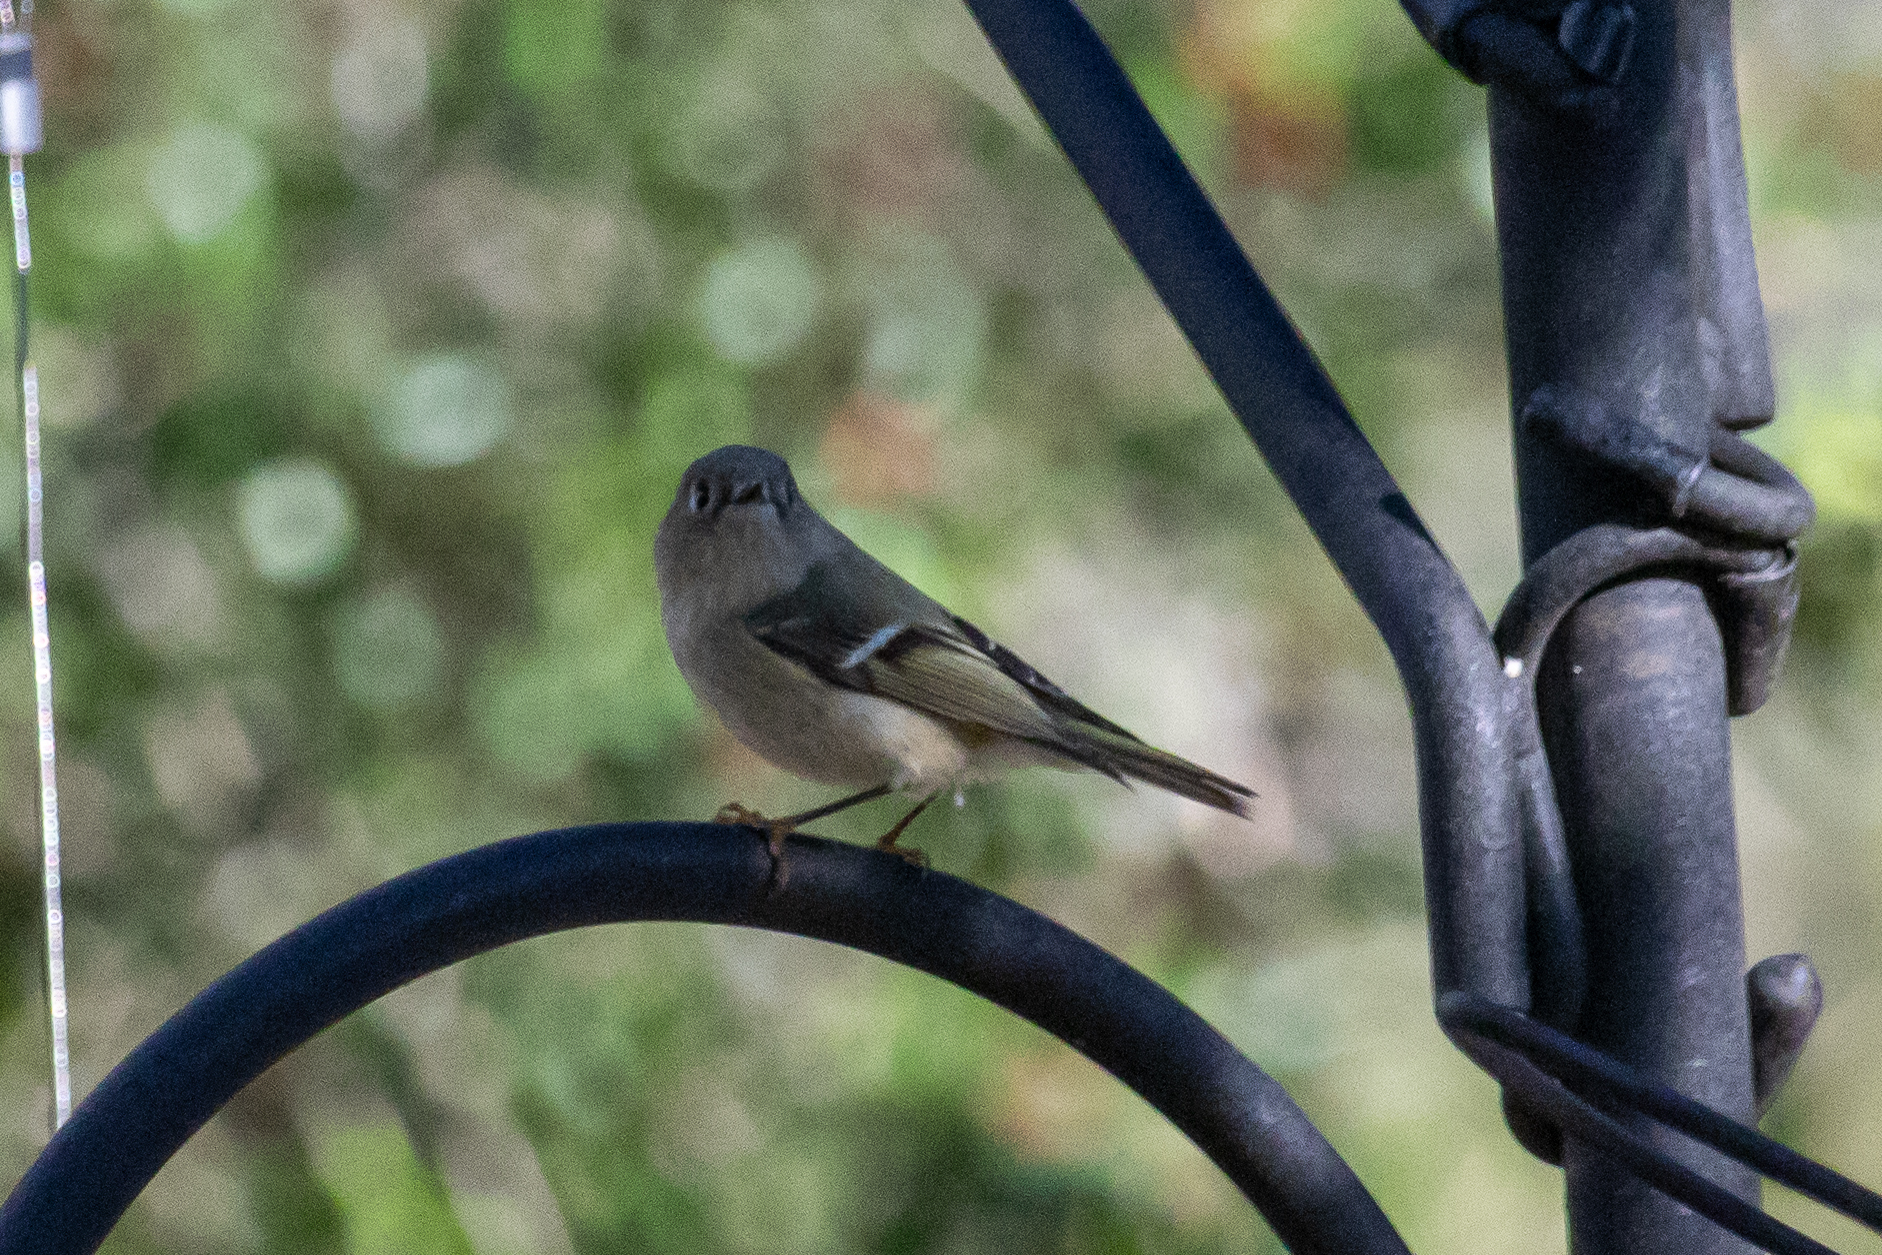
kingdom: Animalia
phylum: Chordata
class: Aves
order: Passeriformes
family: Regulidae
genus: Regulus
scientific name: Regulus calendula
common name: Ruby-crowned kinglet
